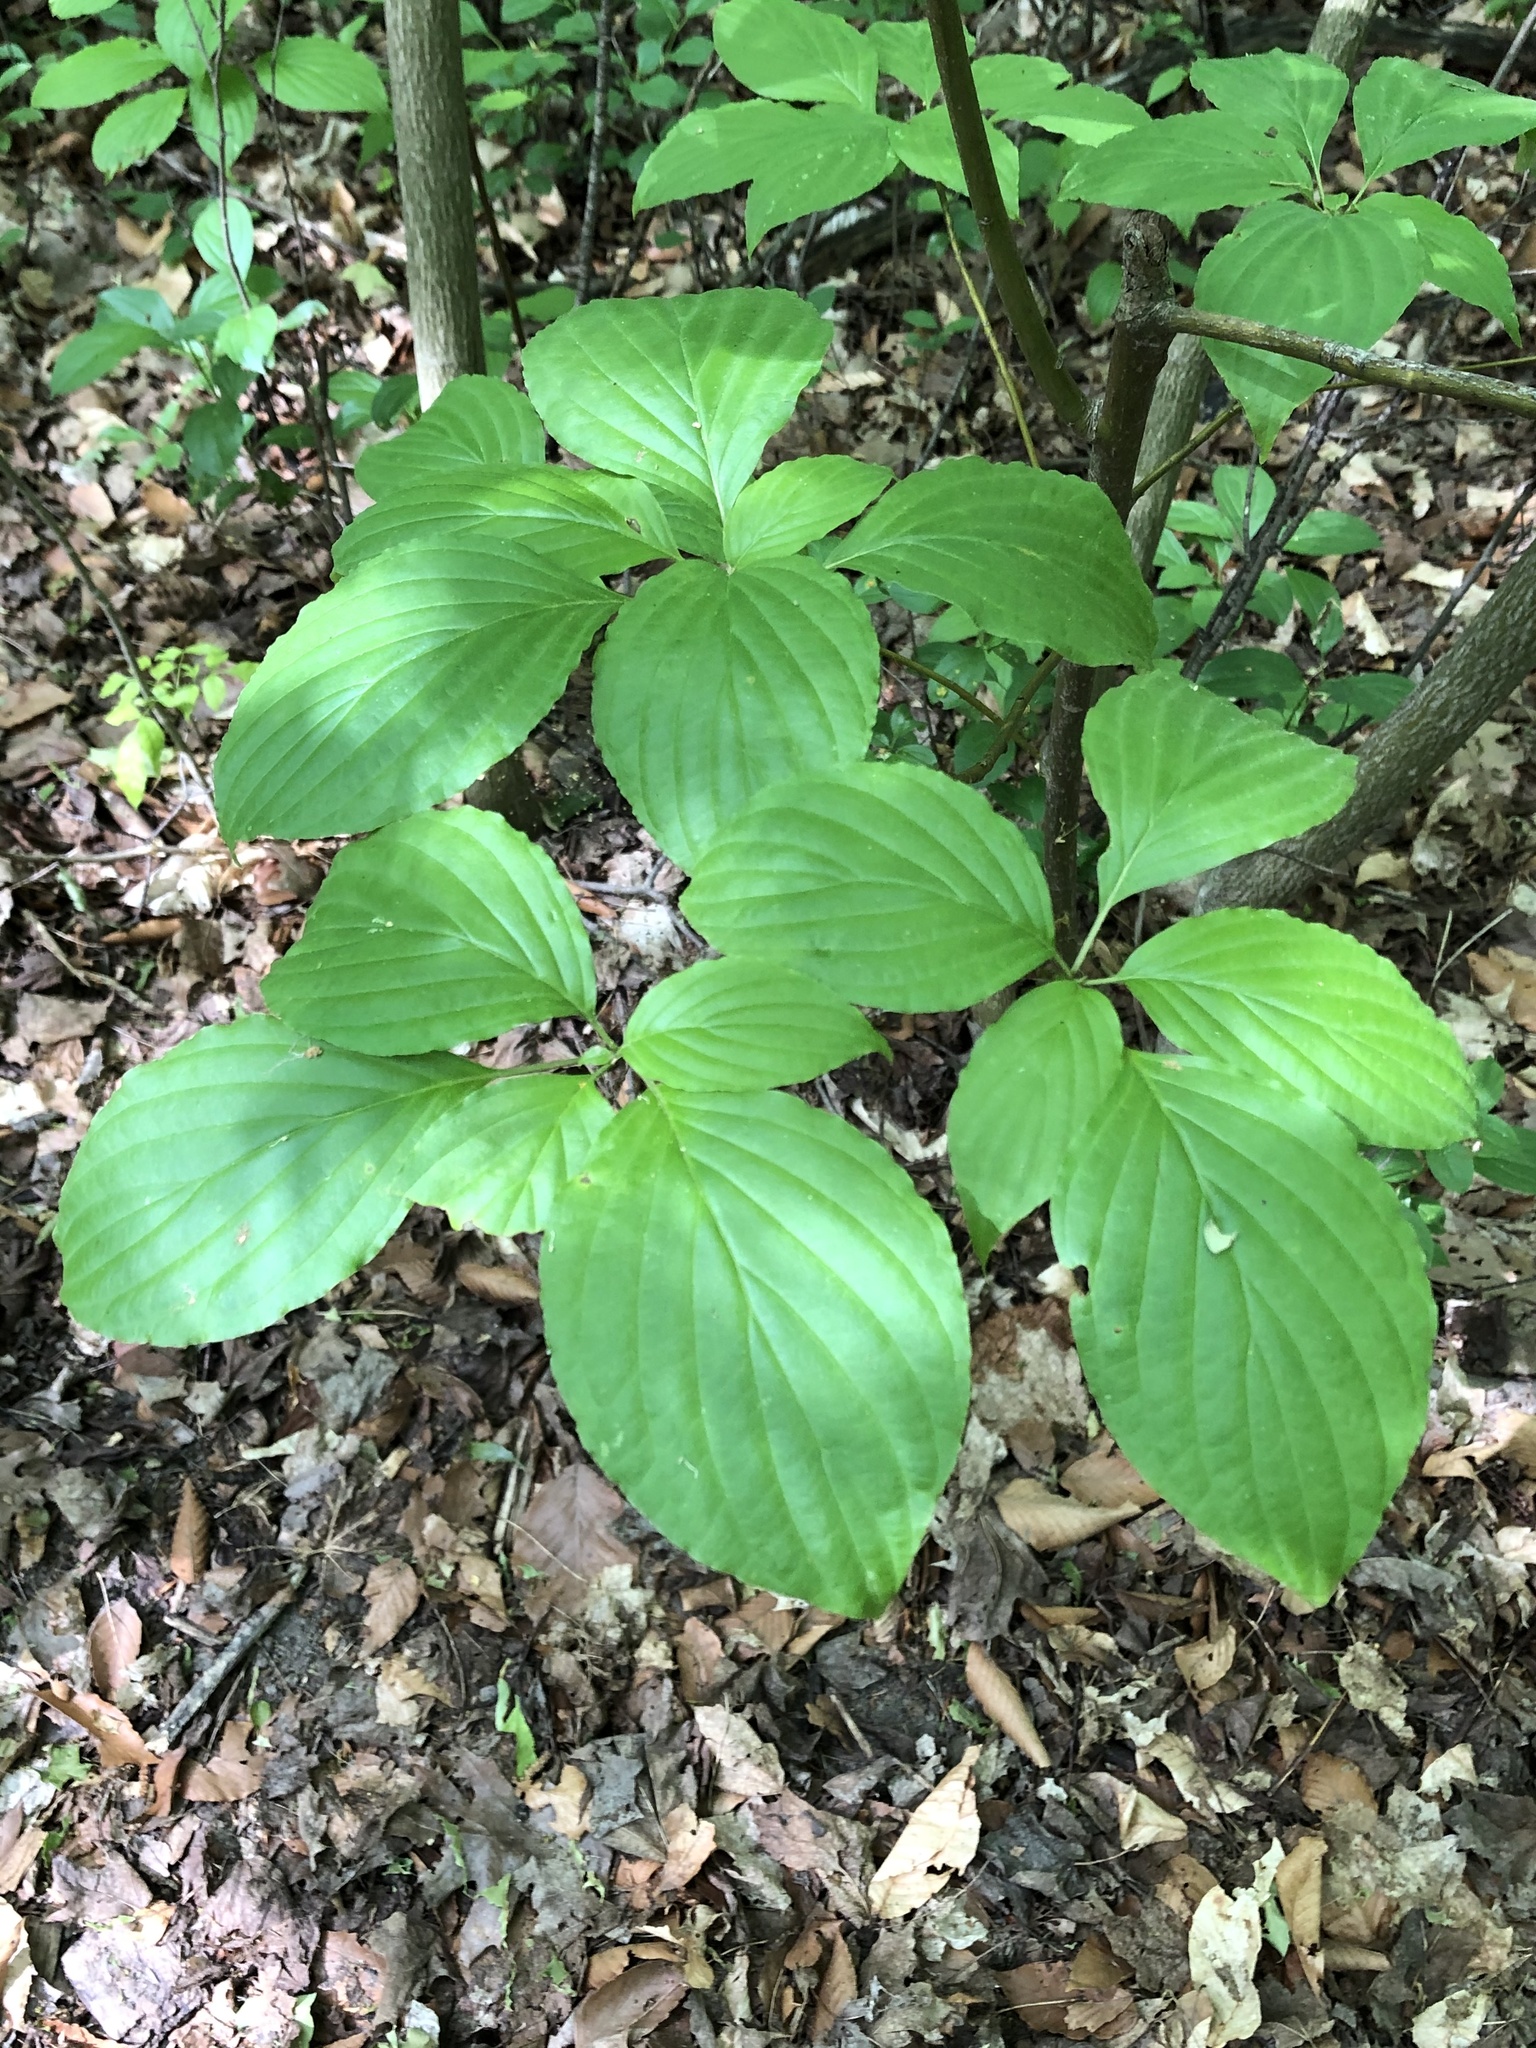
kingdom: Plantae
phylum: Tracheophyta
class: Magnoliopsida
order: Cornales
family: Cornaceae
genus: Cornus
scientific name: Cornus alternifolia
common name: Pagoda dogwood
